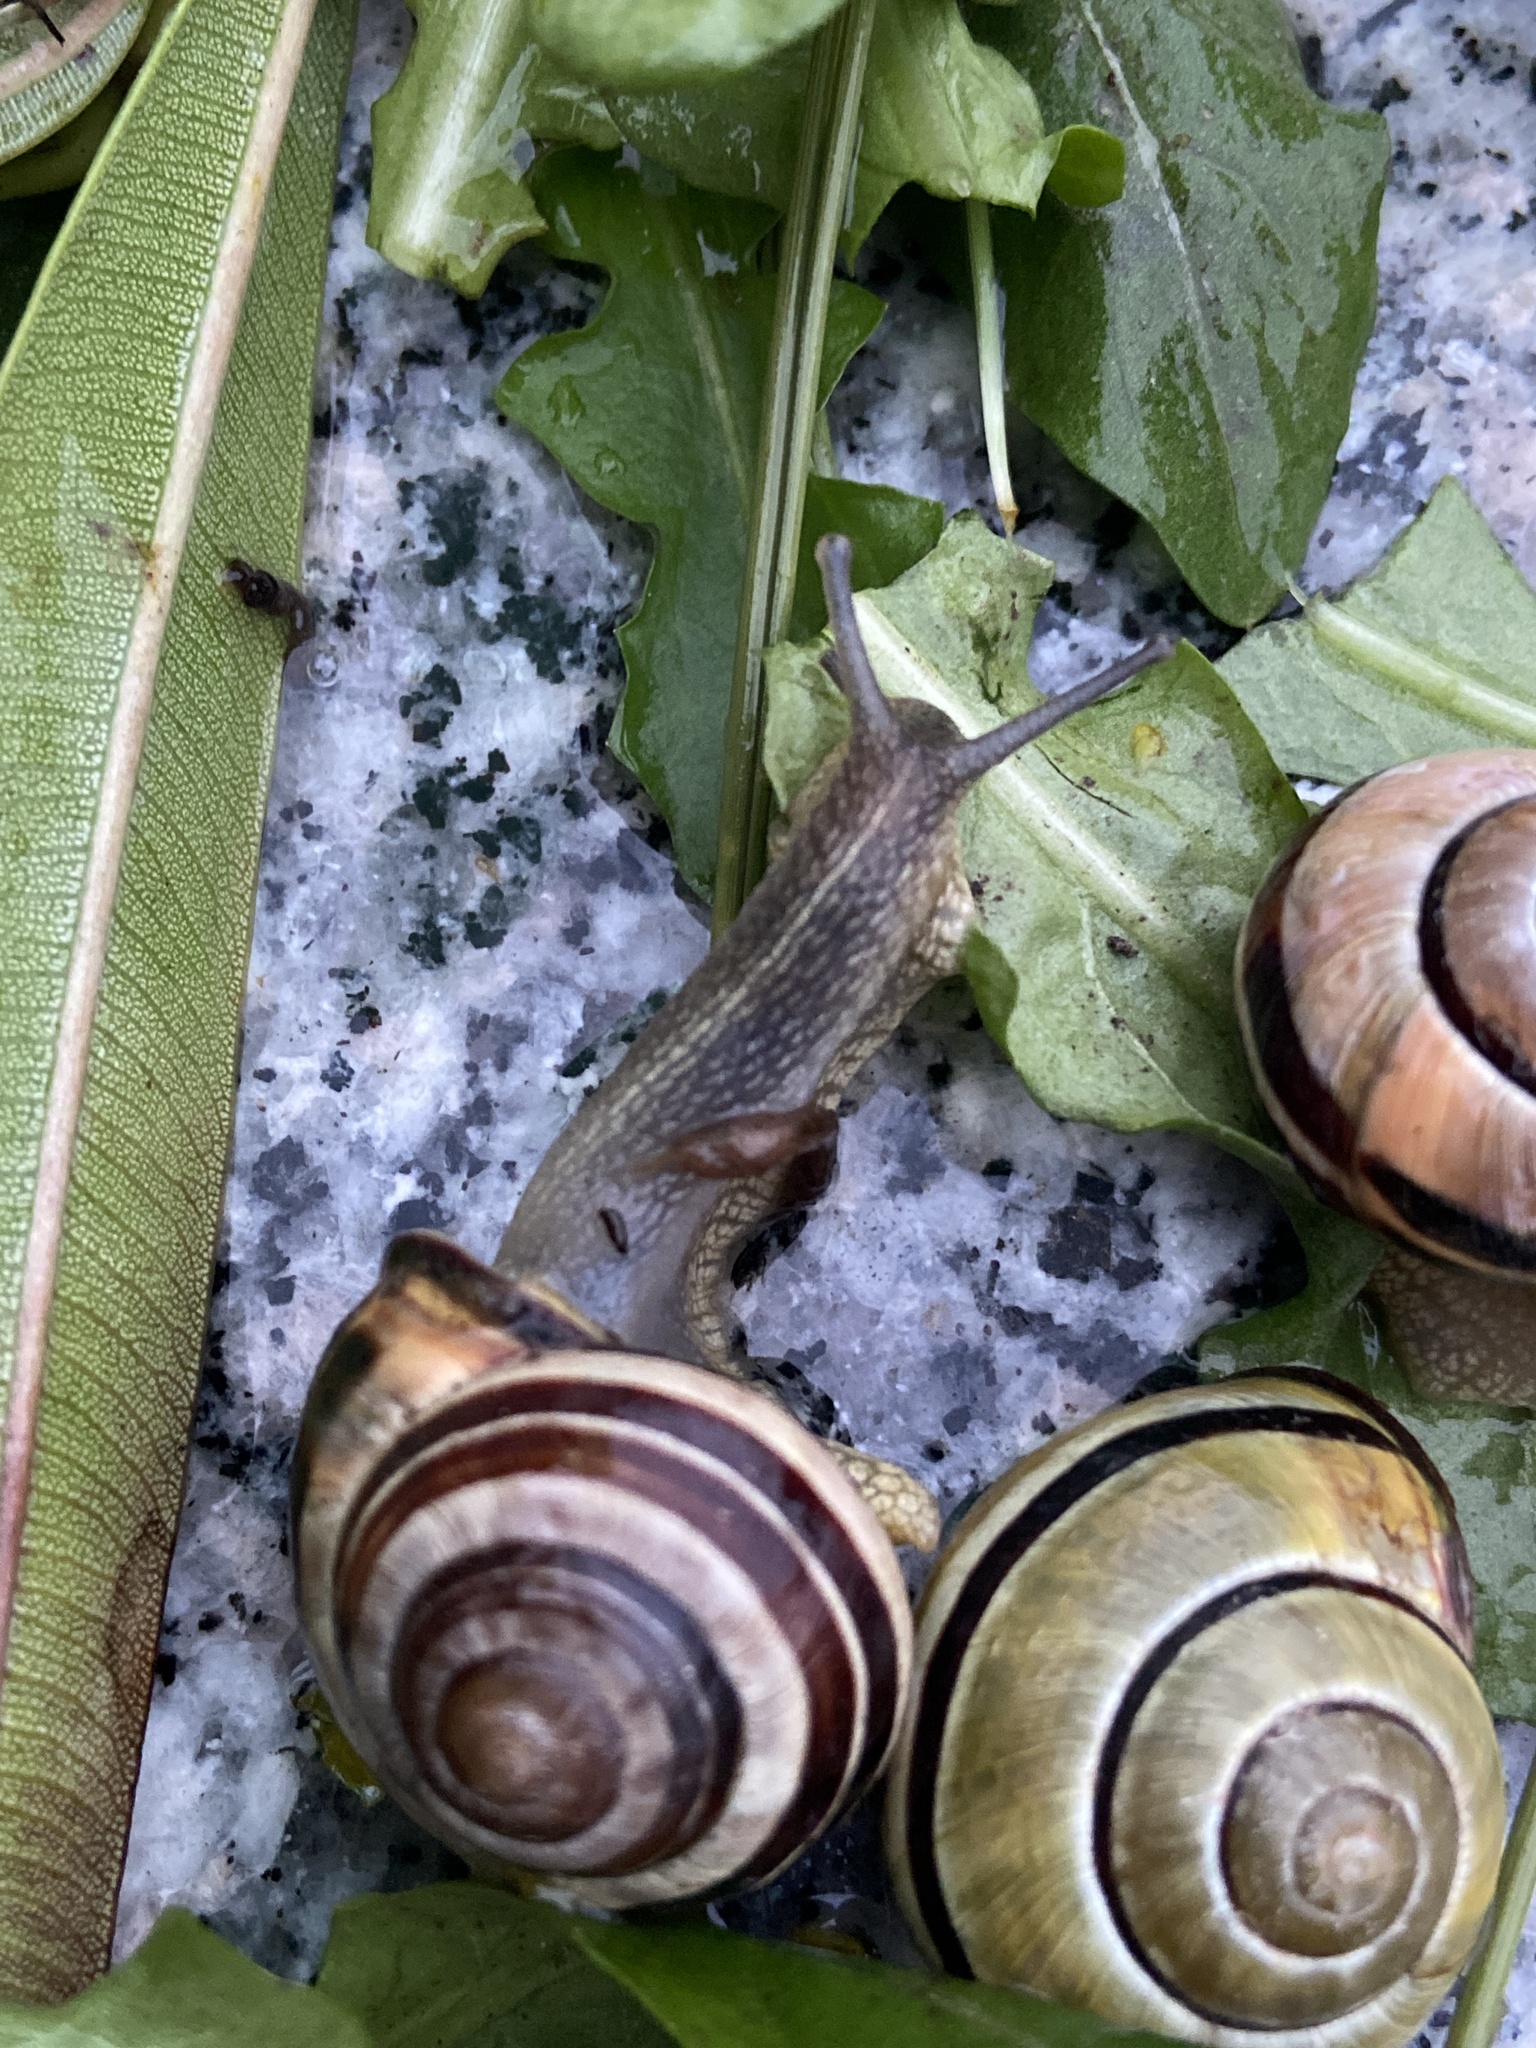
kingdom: Animalia
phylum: Mollusca
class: Gastropoda
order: Stylommatophora
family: Helicidae
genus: Cepaea
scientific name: Cepaea nemoralis
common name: Grovesnail
